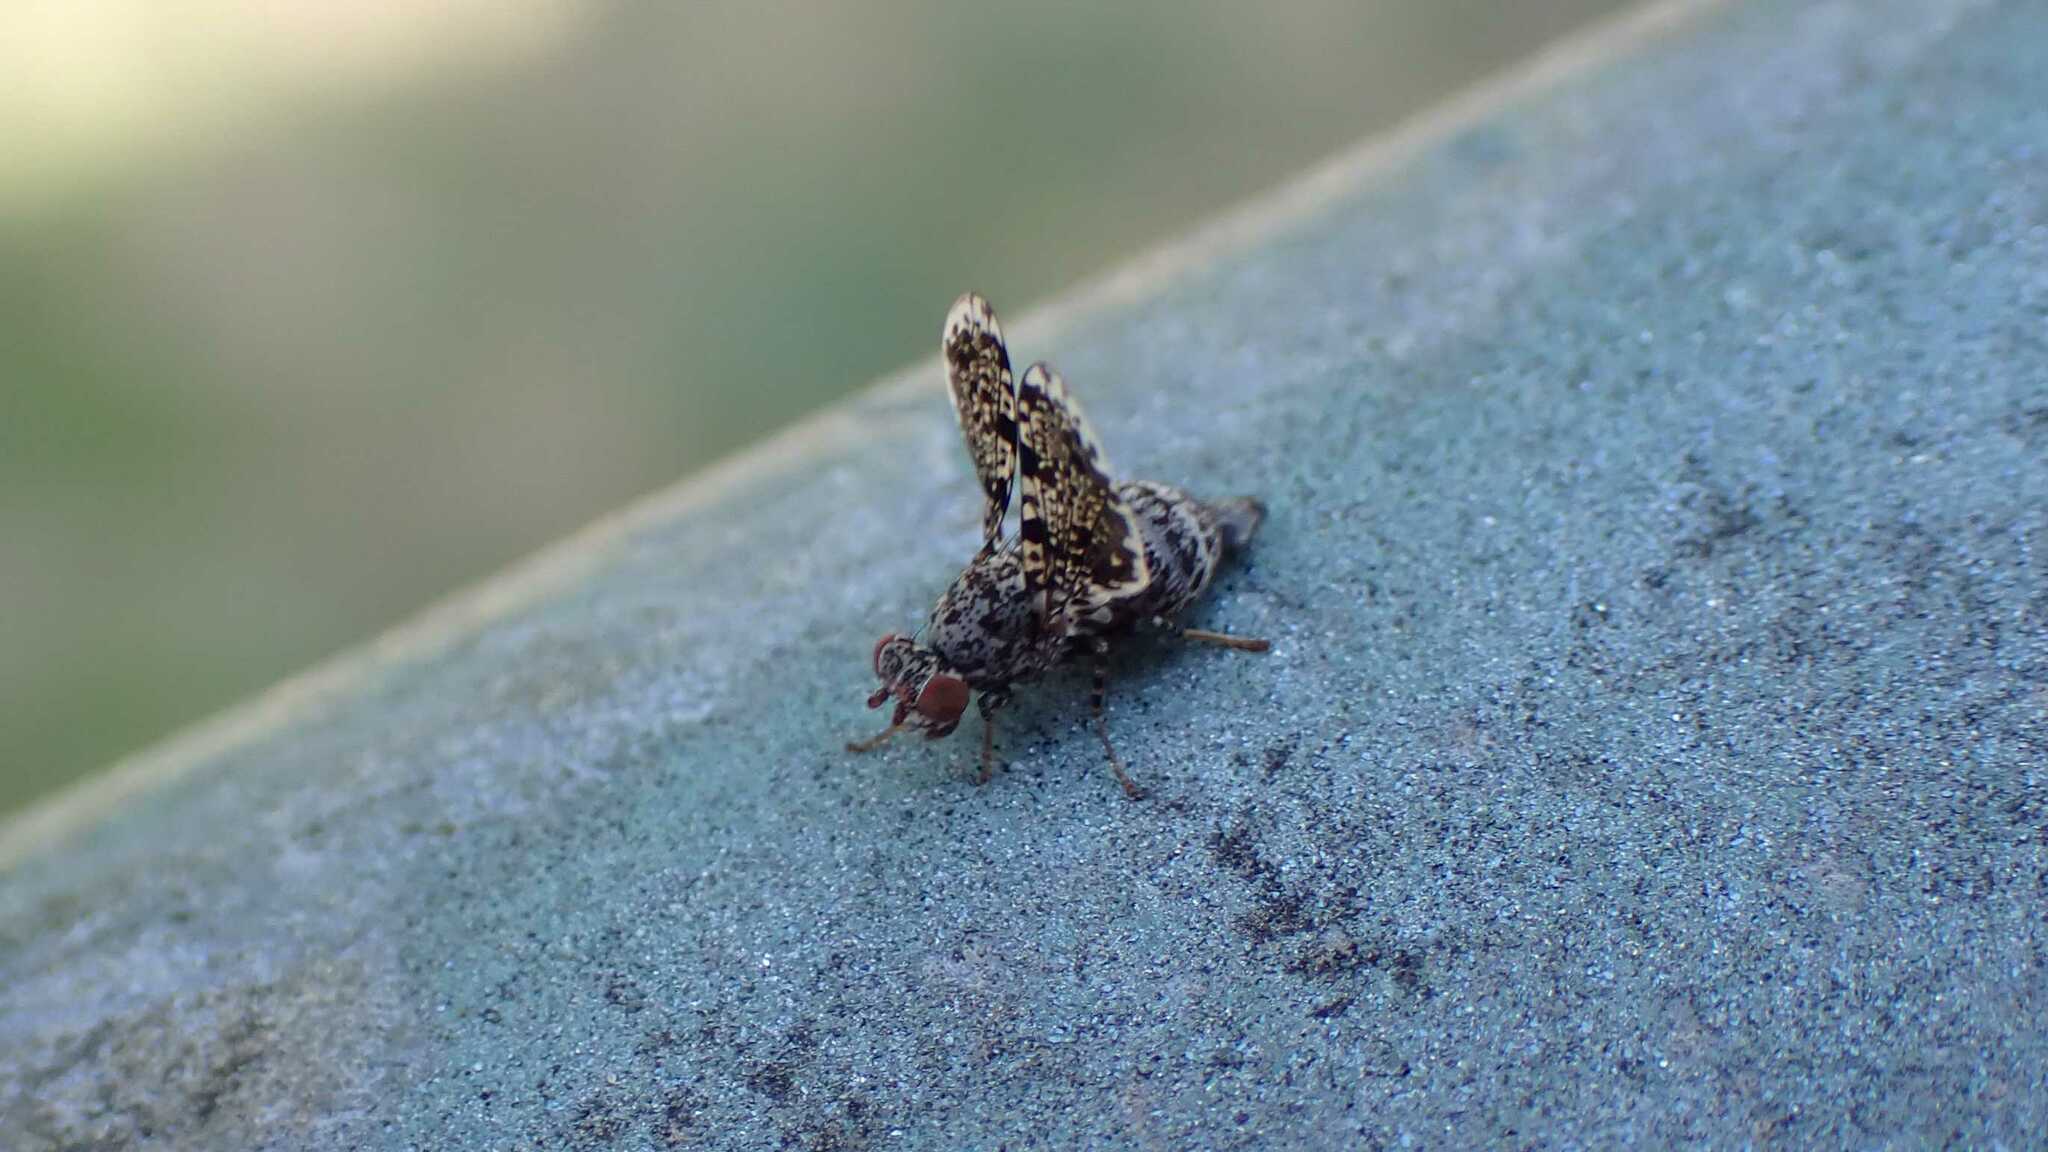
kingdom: Animalia
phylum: Arthropoda
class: Insecta
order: Diptera
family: Ulidiidae
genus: Callopistromyia
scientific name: Callopistromyia annulipes
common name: Peacock fly
